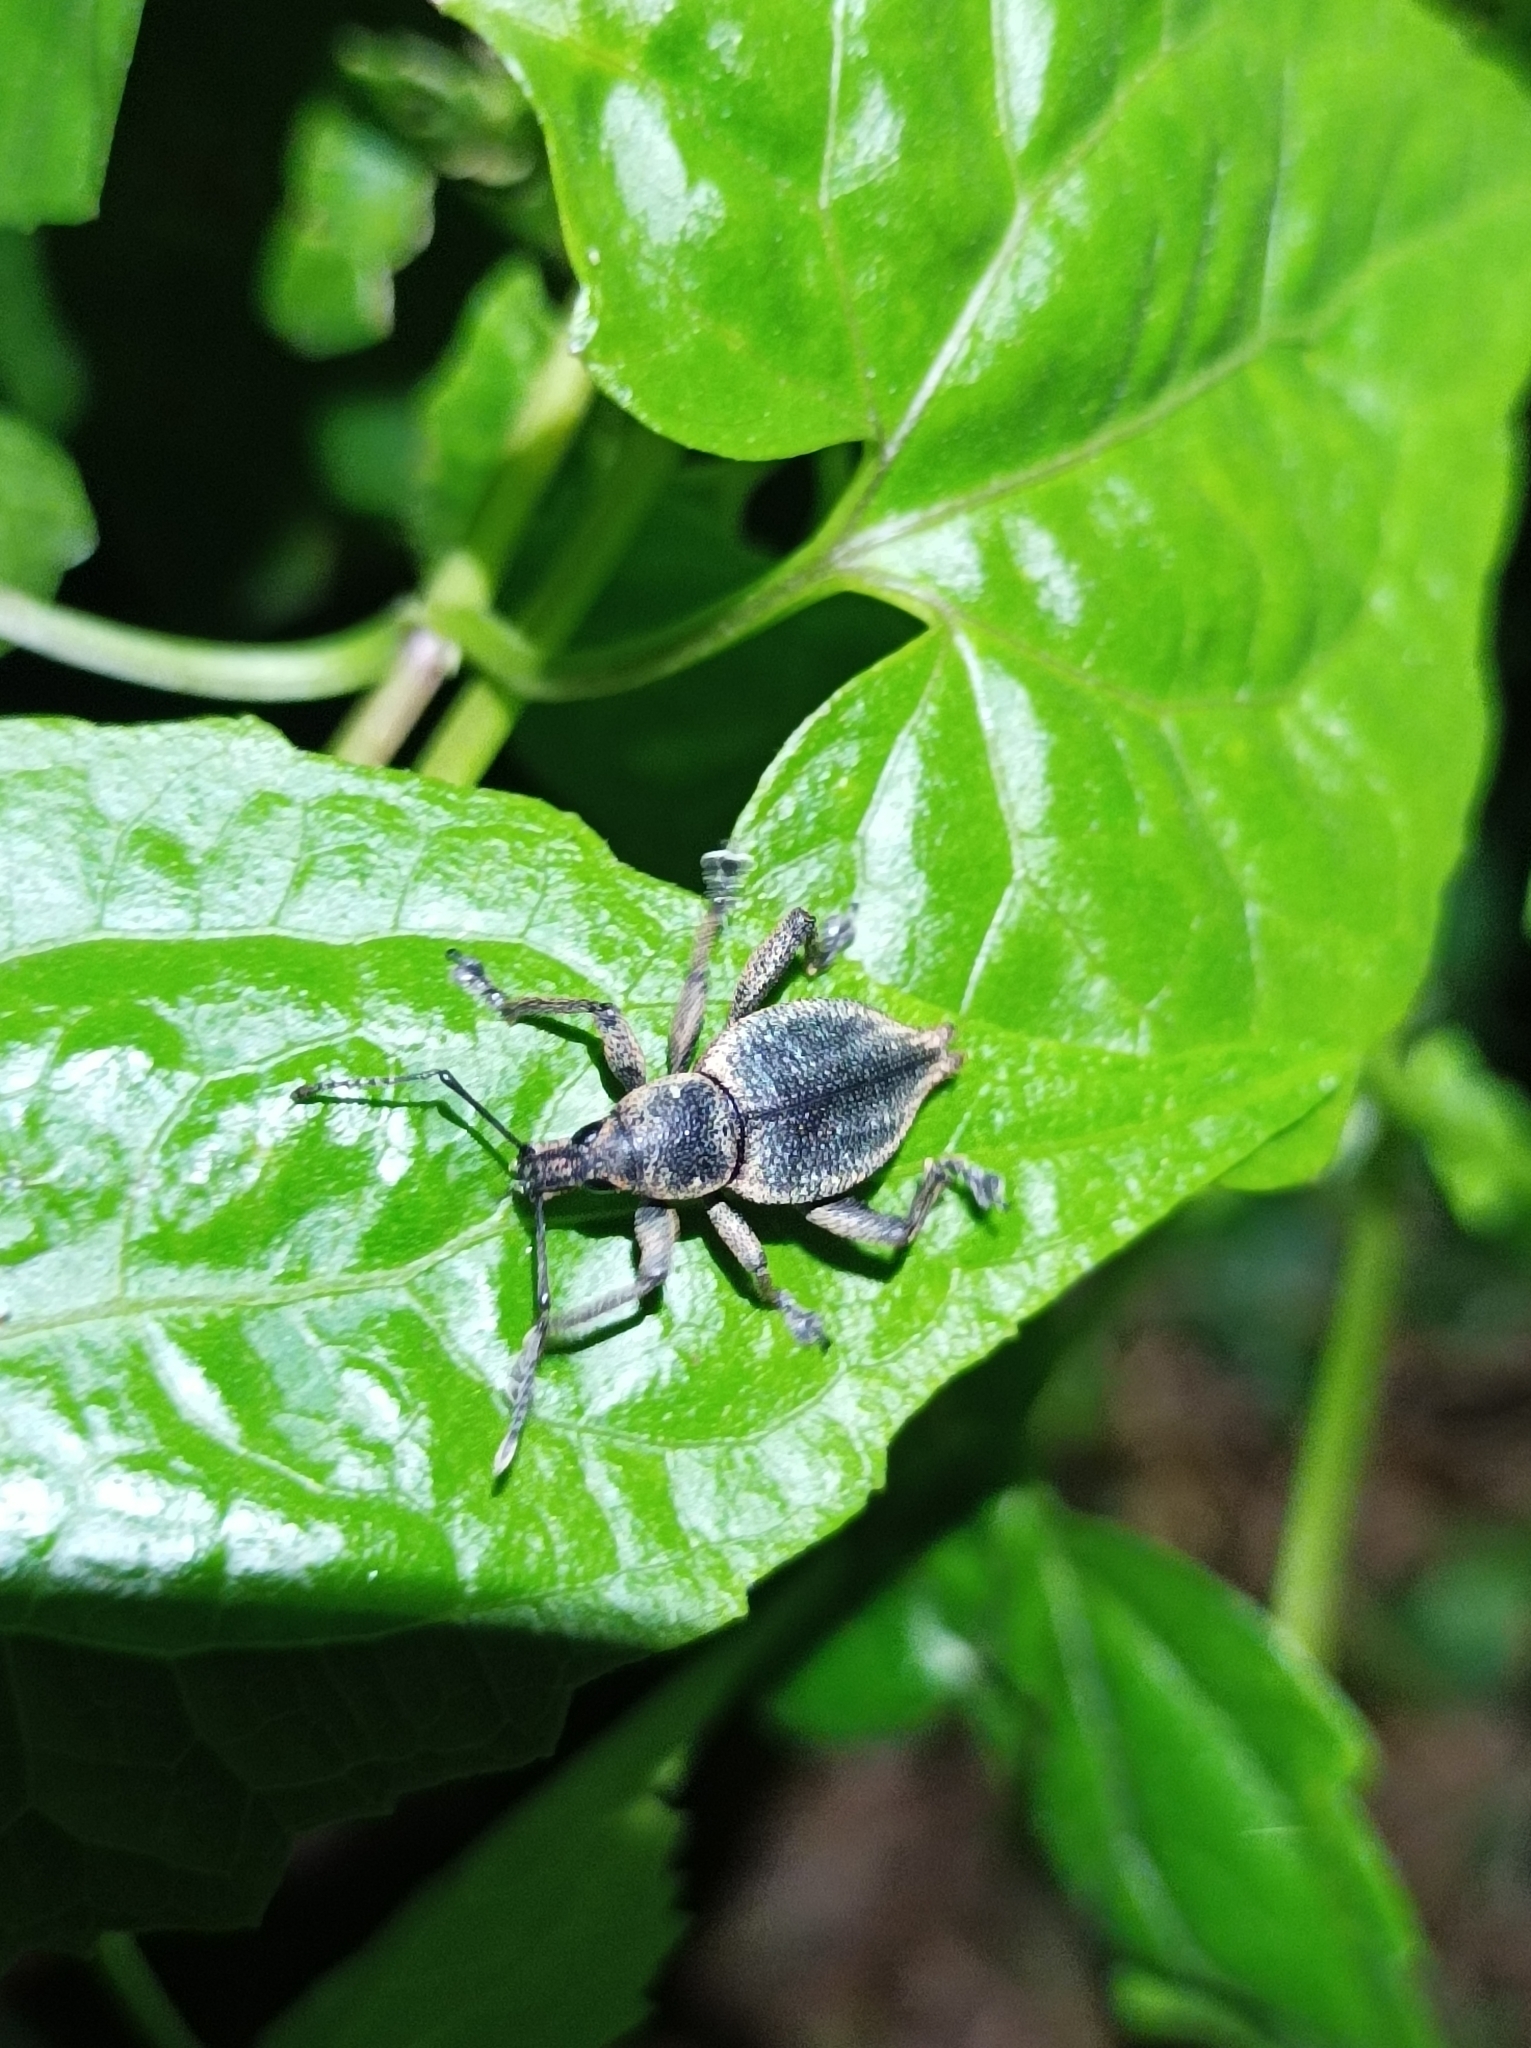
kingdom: Animalia
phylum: Arthropoda
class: Insecta
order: Coleoptera
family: Curculionidae
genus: Elytrurus
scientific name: Elytrurus serrulatus
